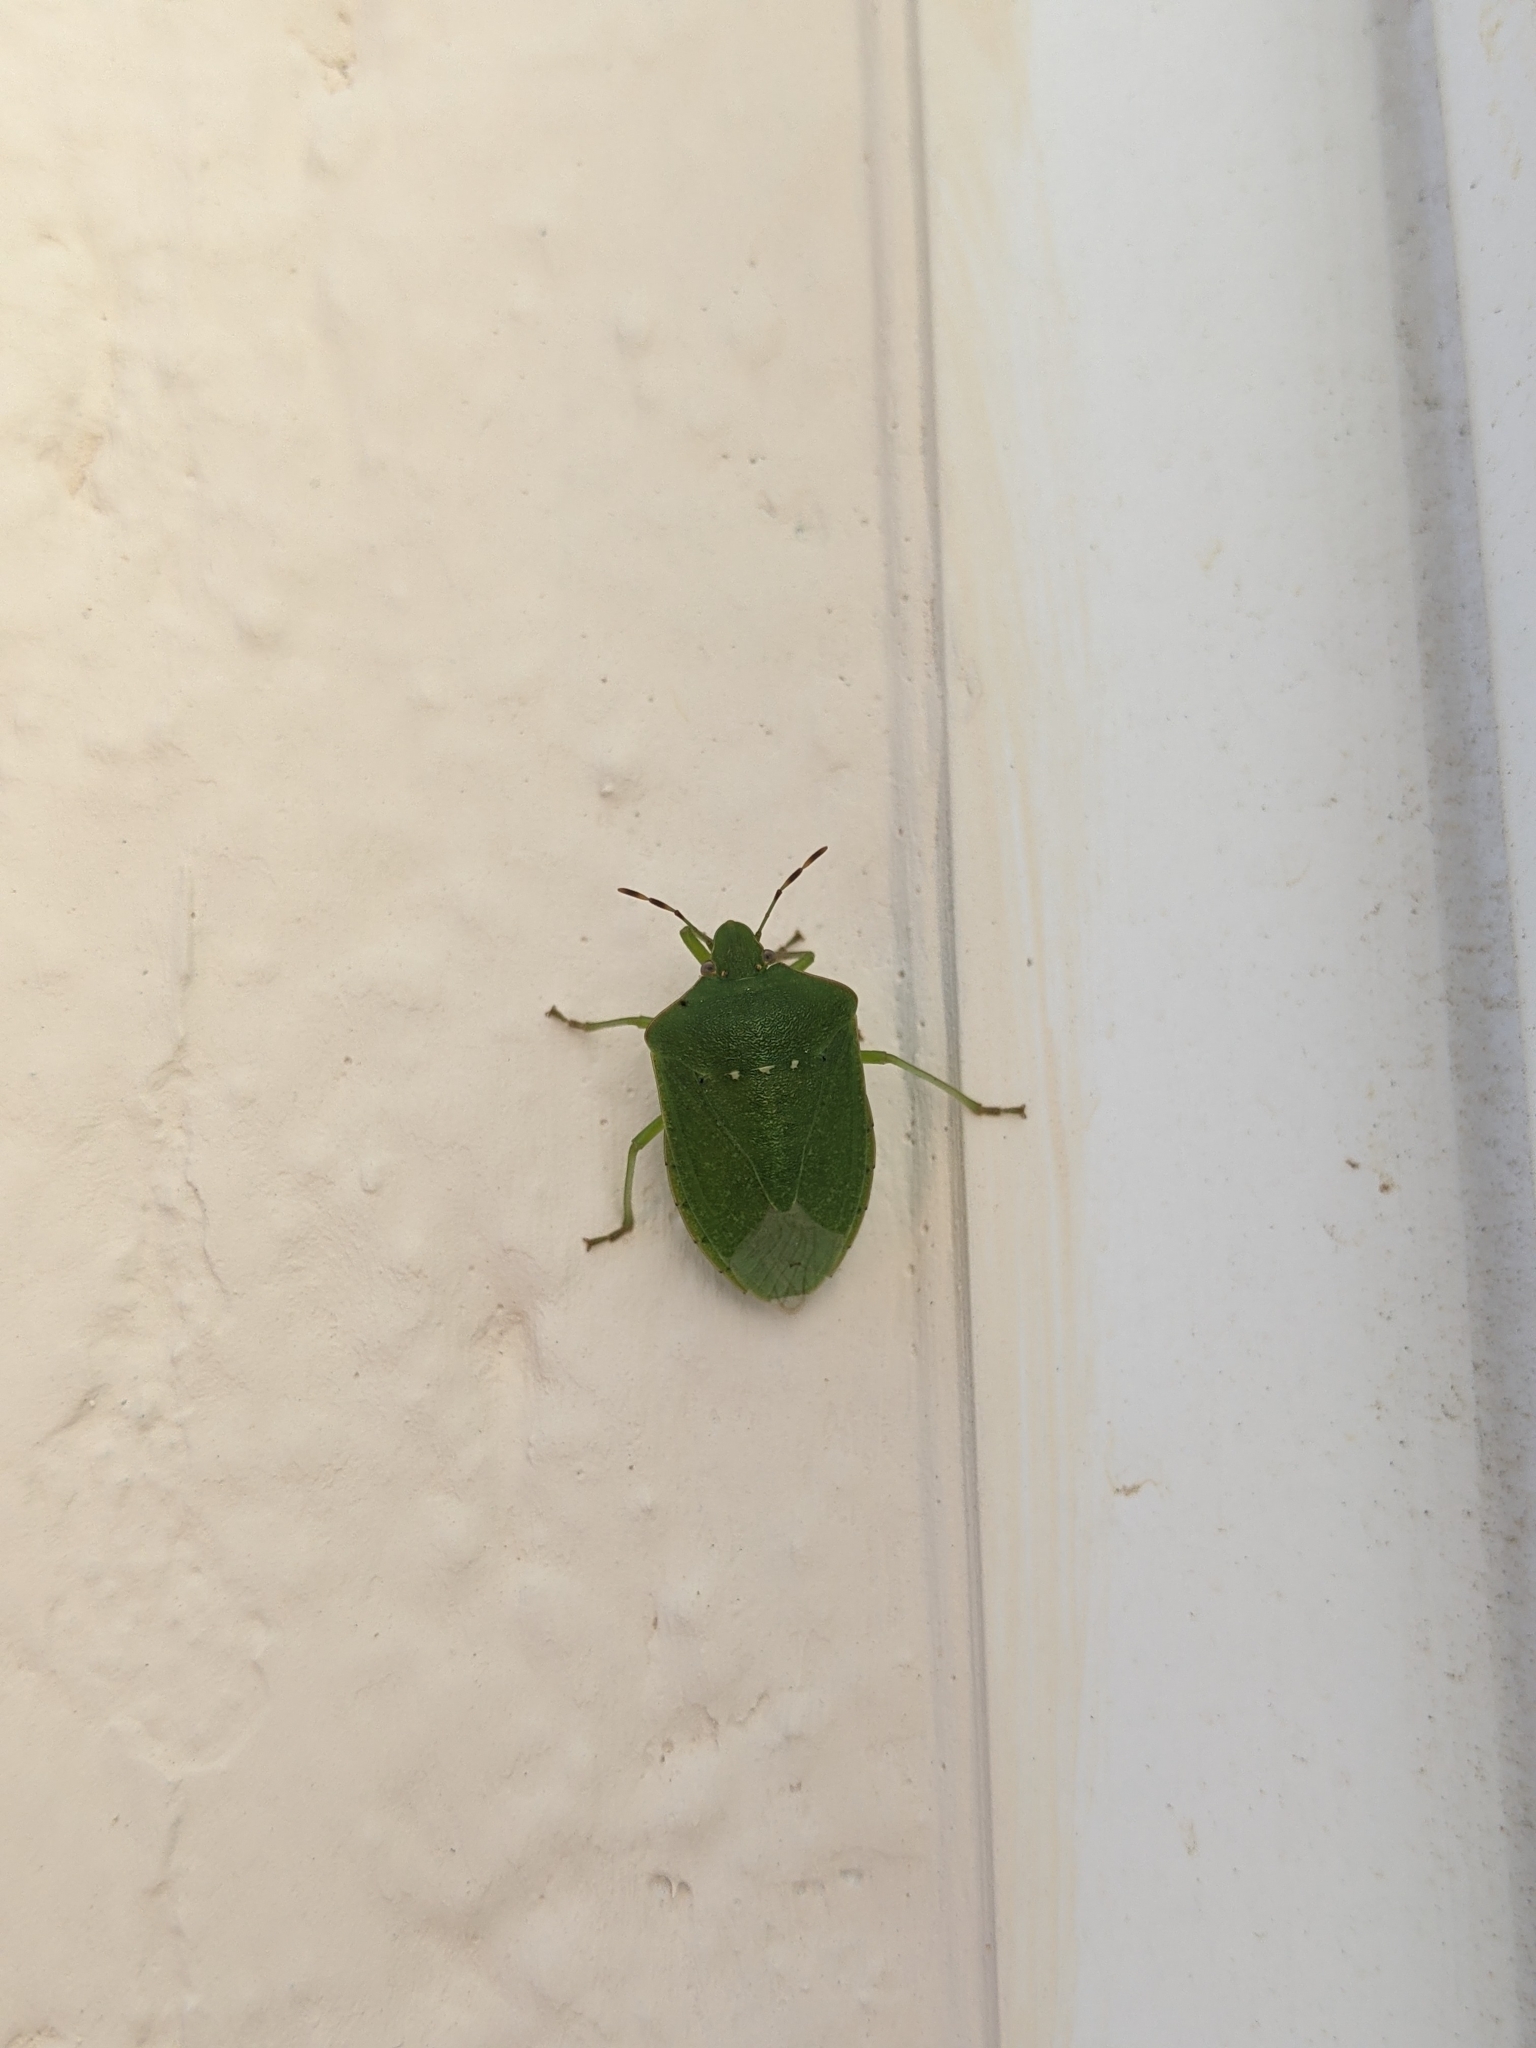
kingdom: Animalia
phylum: Arthropoda
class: Insecta
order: Hemiptera
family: Pentatomidae
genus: Nezara
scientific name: Nezara viridula
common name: Southern green stink bug
